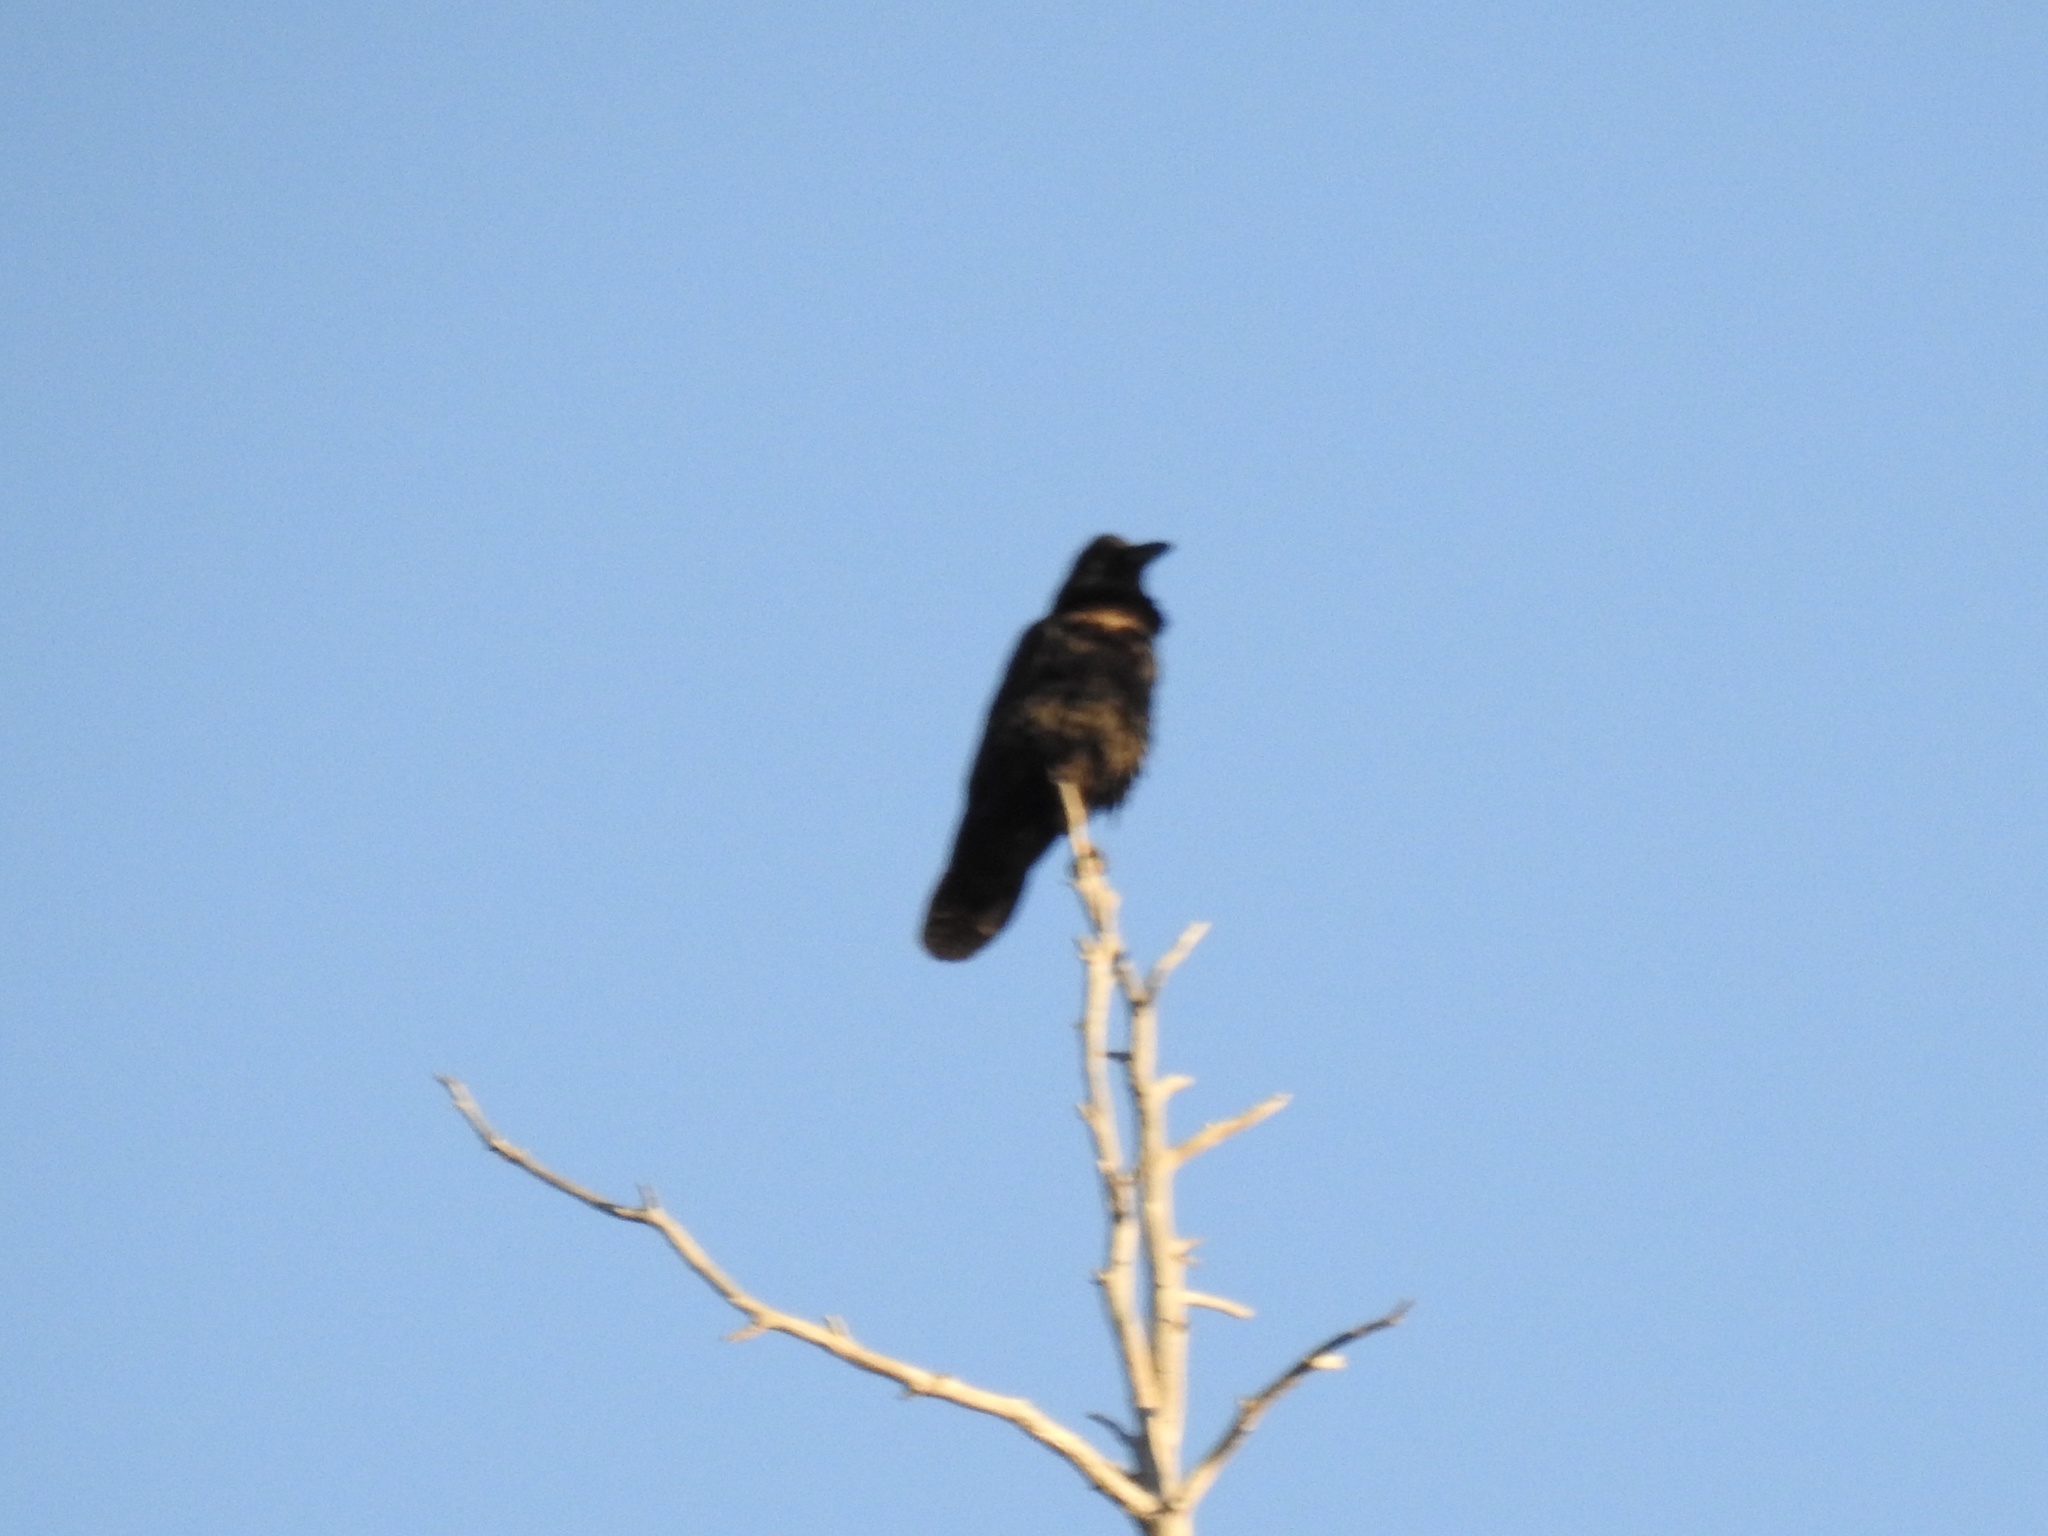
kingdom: Animalia
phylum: Chordata
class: Aves
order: Passeriformes
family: Corvidae
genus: Corvus
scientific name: Corvus corax
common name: Common raven
